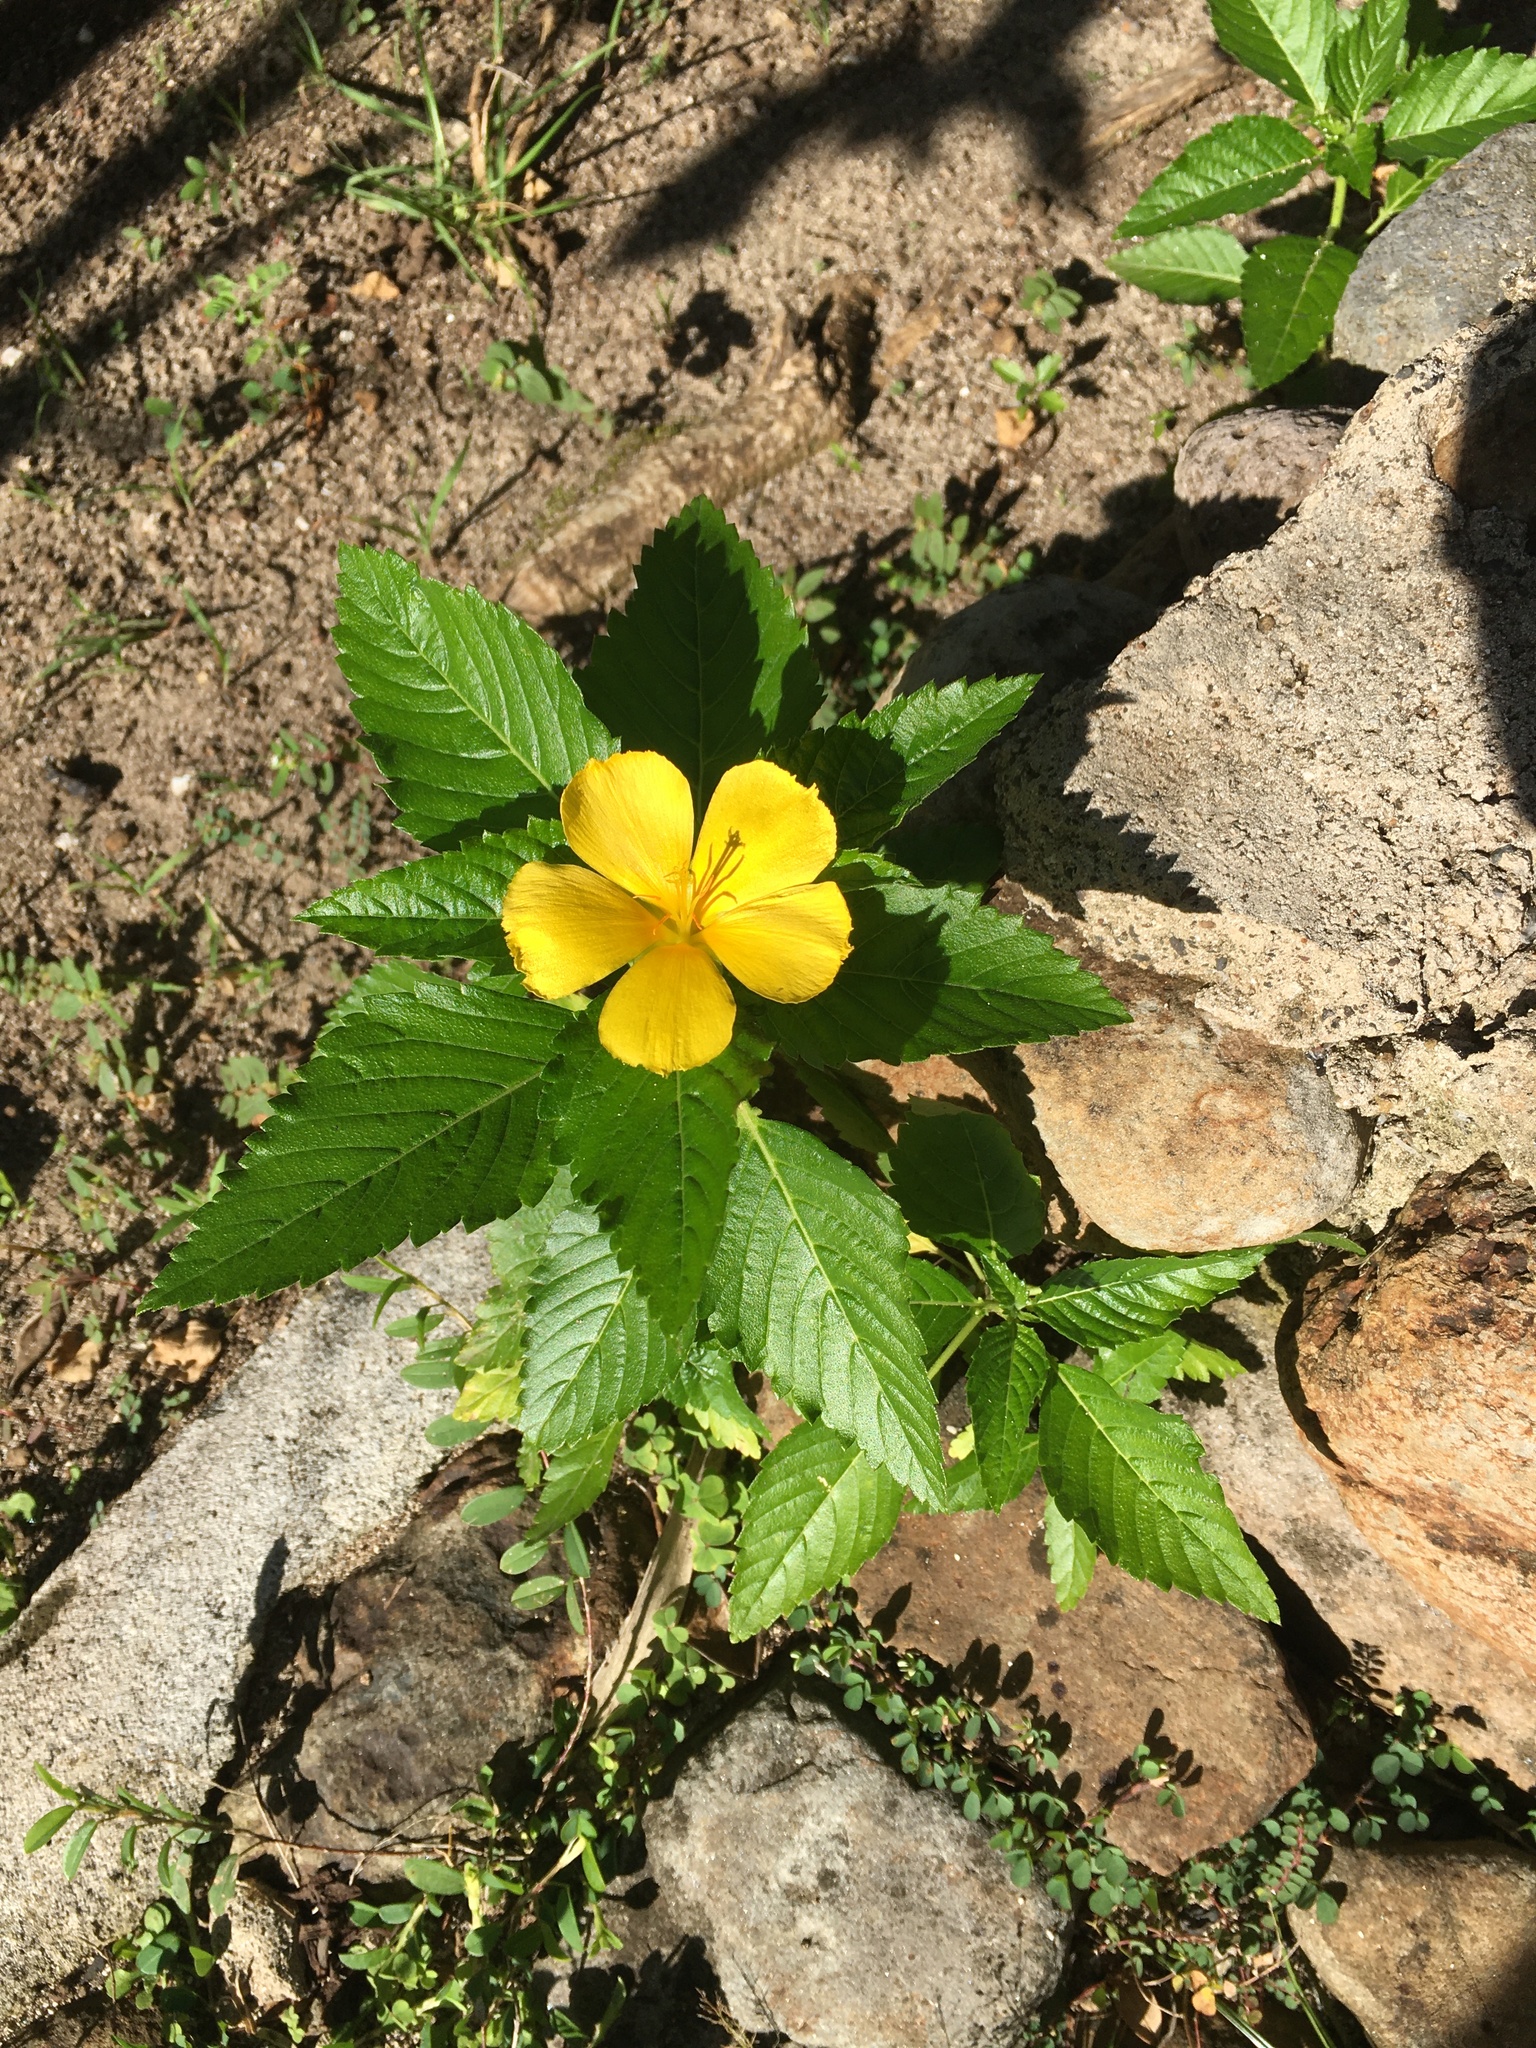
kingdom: Plantae
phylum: Tracheophyta
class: Magnoliopsida
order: Malpighiales
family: Turneraceae
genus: Turnera
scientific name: Turnera ulmifolia
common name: Ramgoat dashalong
